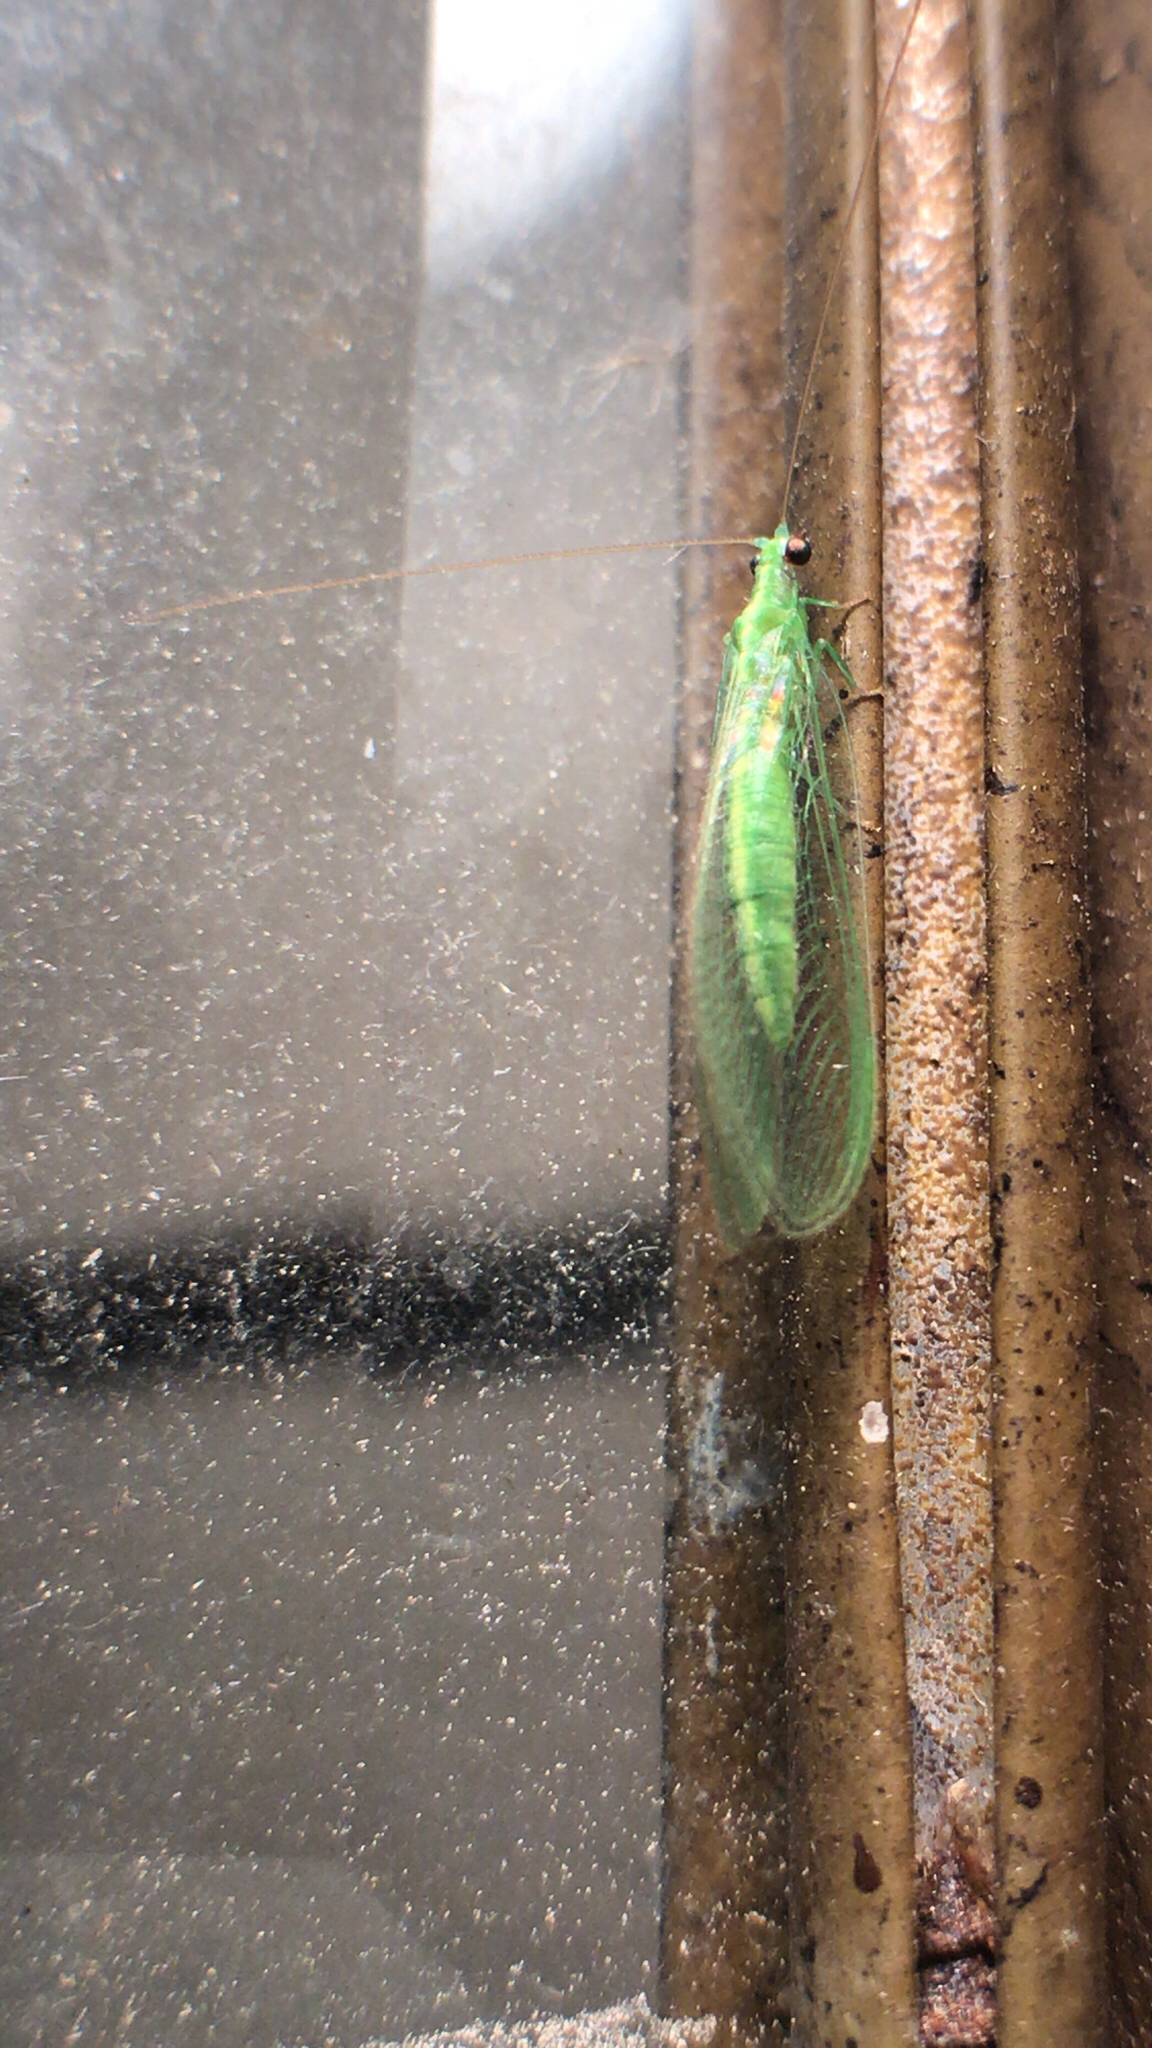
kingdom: Animalia
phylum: Arthropoda
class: Insecta
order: Neuroptera
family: Chrysopidae
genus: Chrysoperla
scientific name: Chrysoperla
